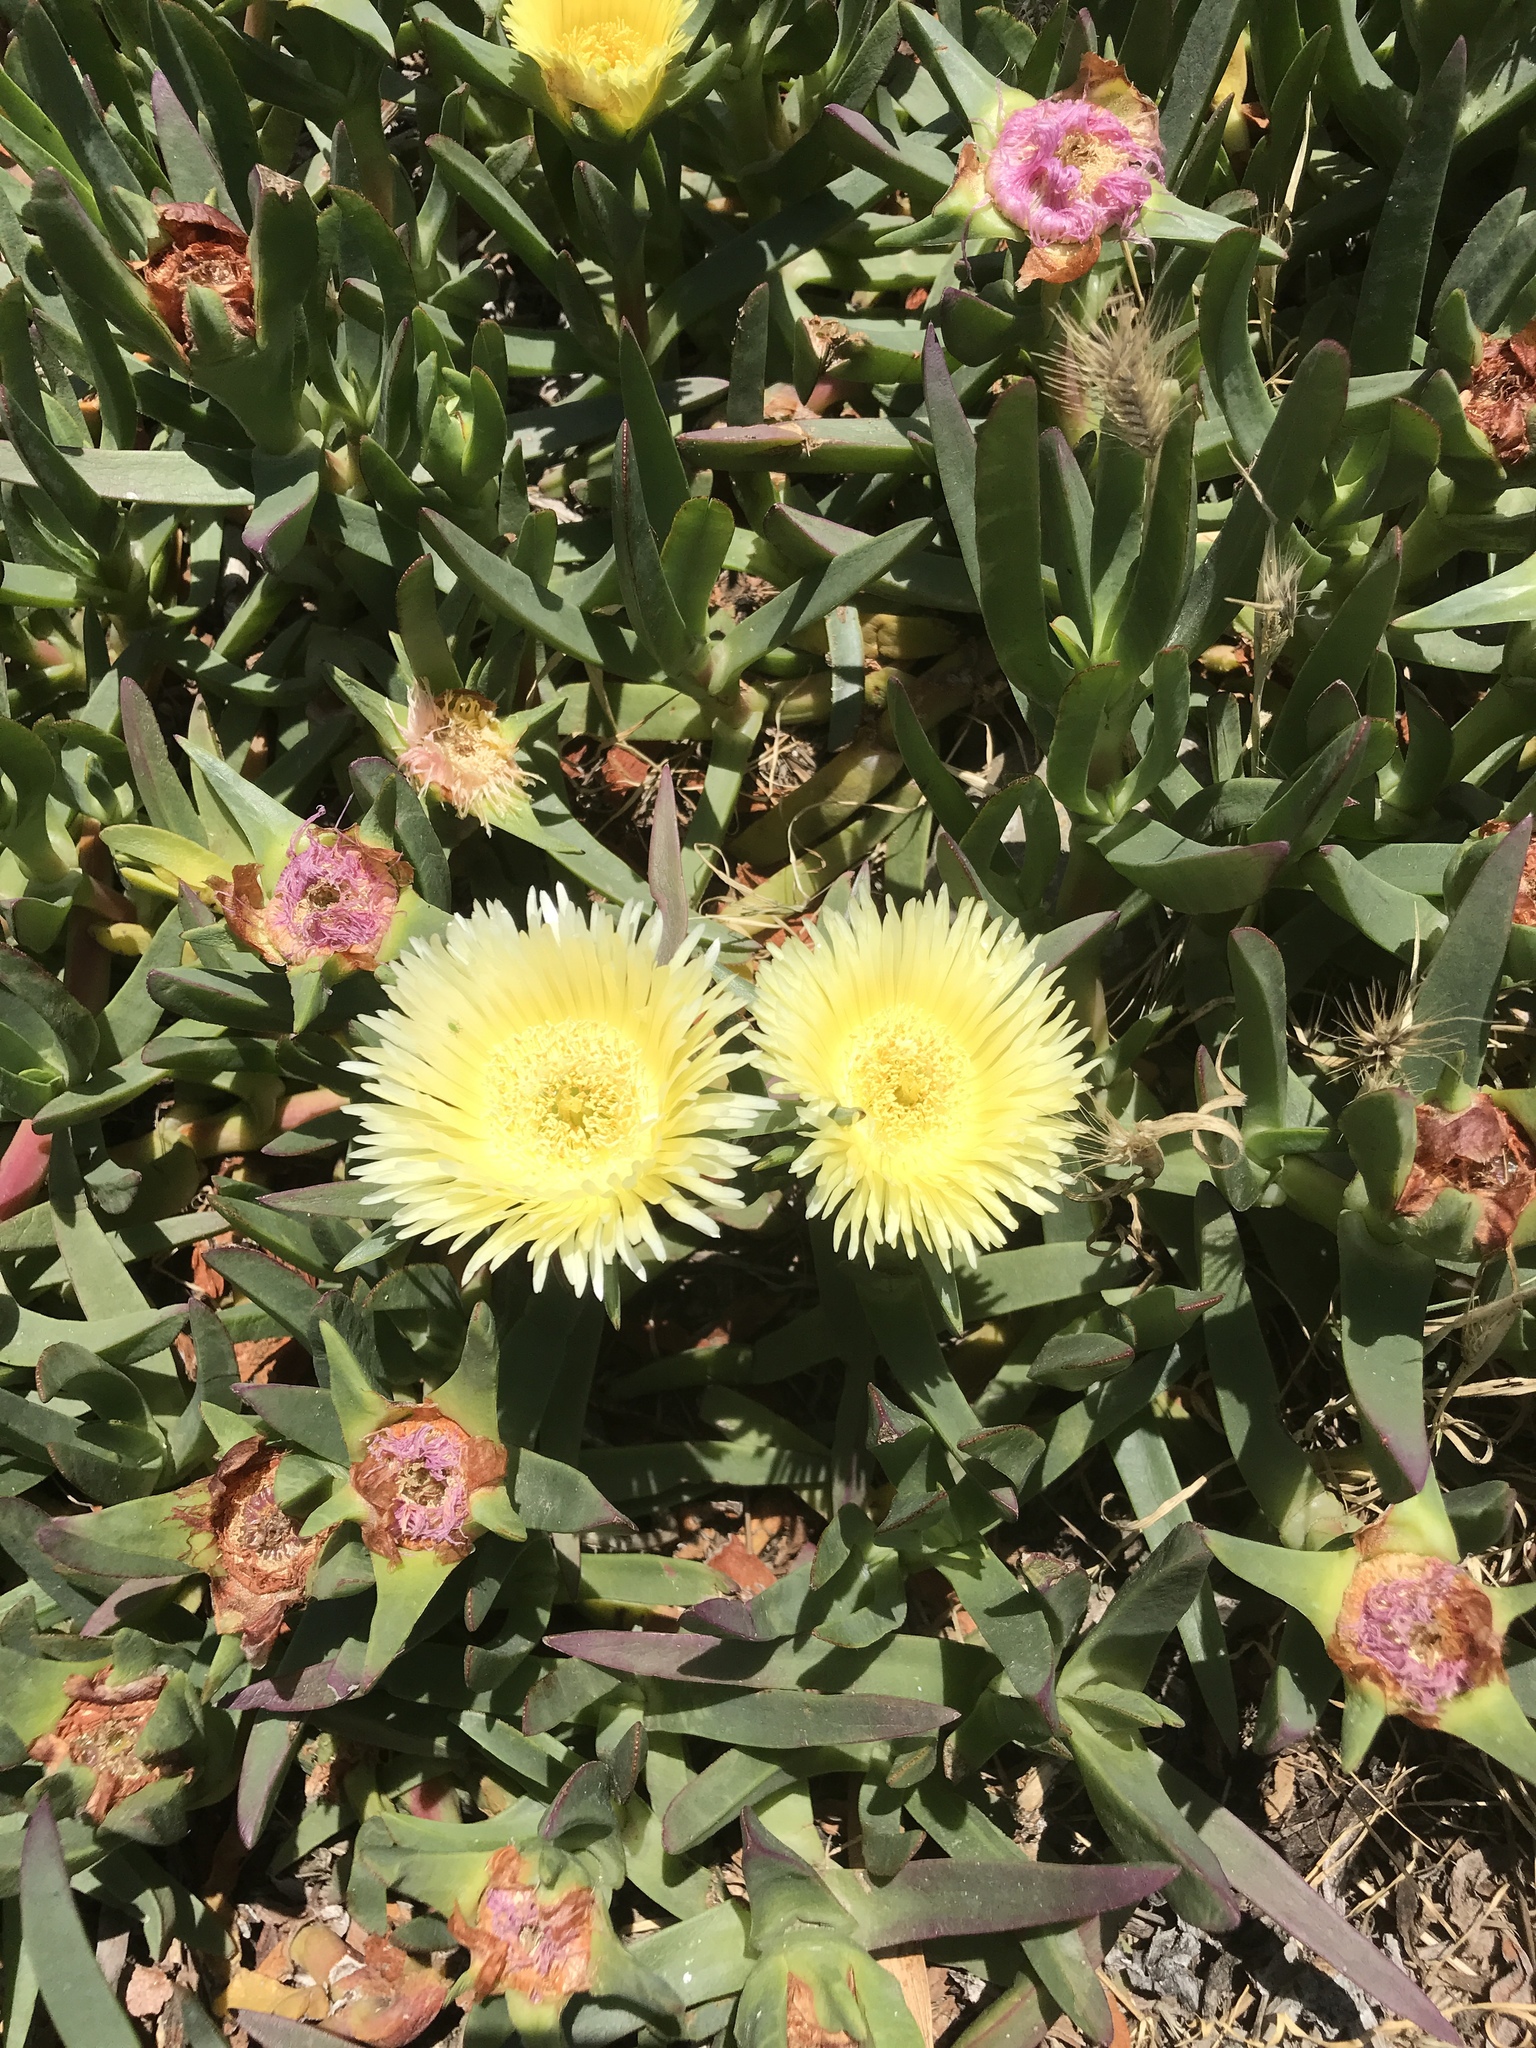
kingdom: Plantae
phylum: Tracheophyta
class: Magnoliopsida
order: Caryophyllales
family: Aizoaceae
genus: Carpobrotus
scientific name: Carpobrotus edulis
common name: Hottentot-fig
